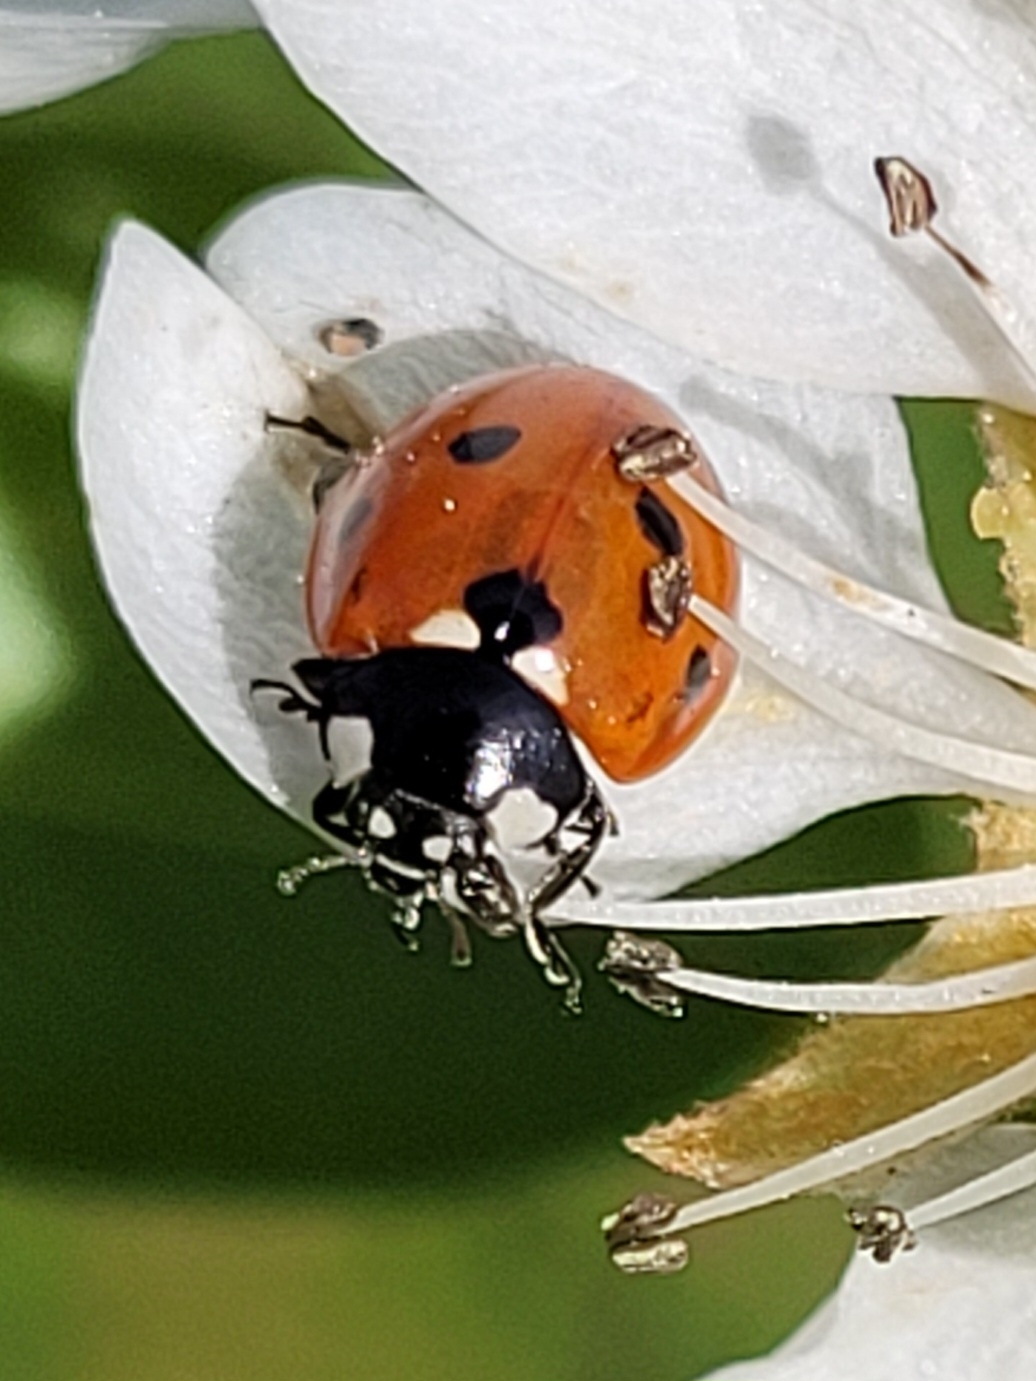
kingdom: Animalia
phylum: Arthropoda
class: Insecta
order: Coleoptera
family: Coccinellidae
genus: Coccinella
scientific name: Coccinella septempunctata
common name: Sevenspotted lady beetle
